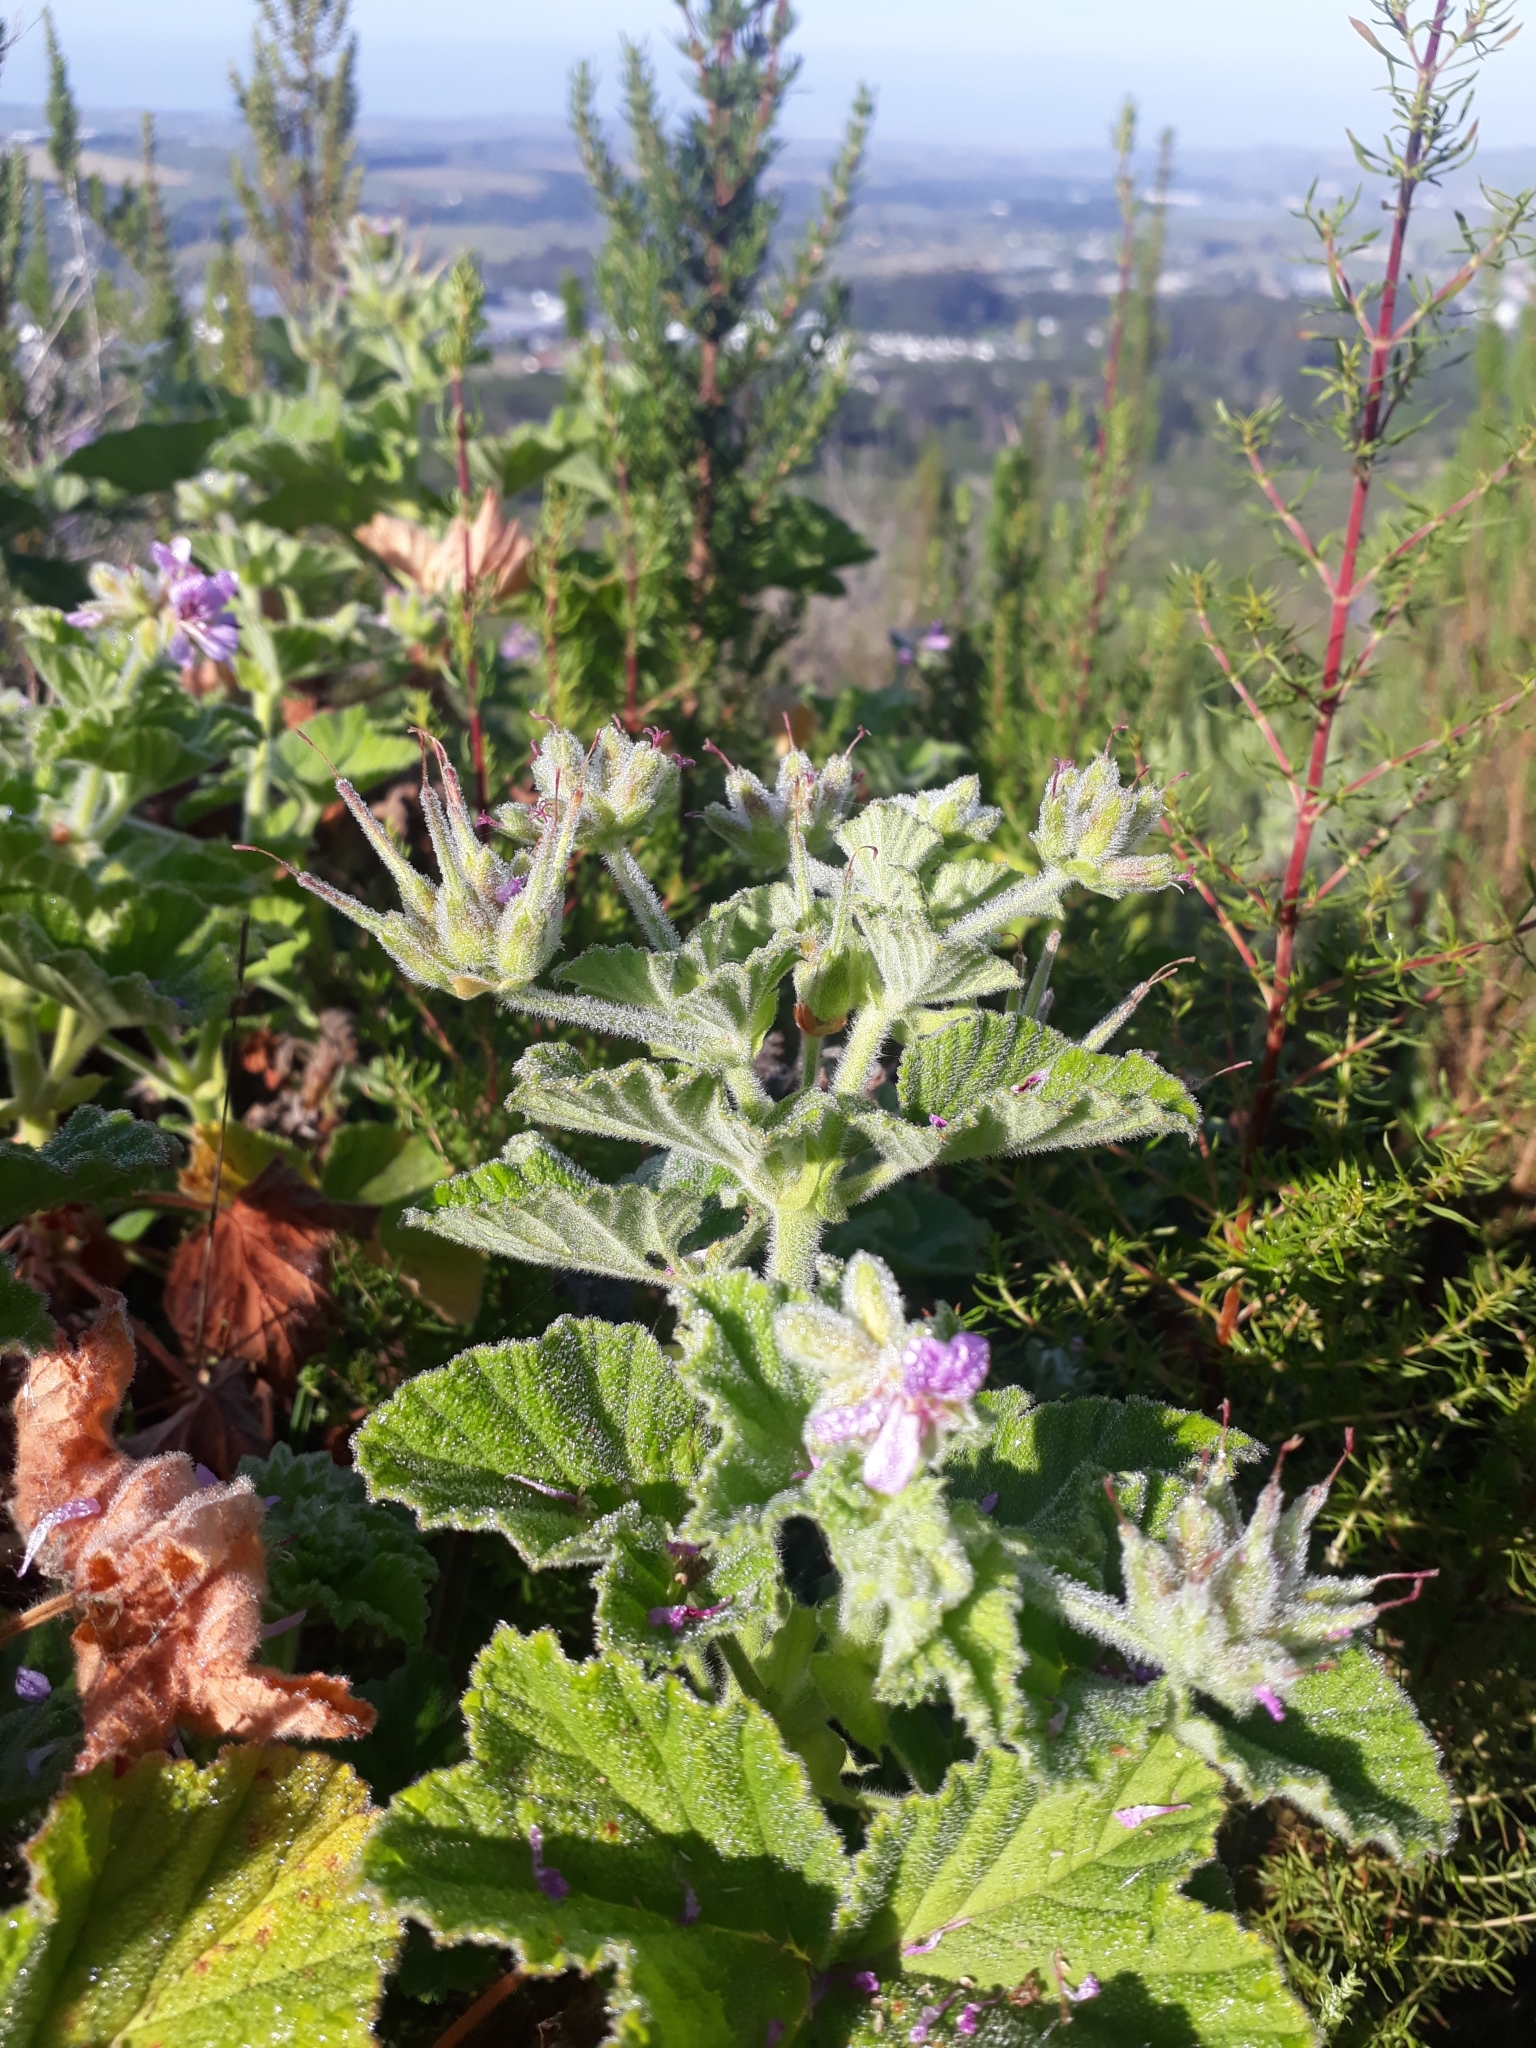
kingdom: Plantae
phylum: Tracheophyta
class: Magnoliopsida
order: Geraniales
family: Geraniaceae
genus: Pelargonium
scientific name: Pelargonium vitifolium
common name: Grapeleaf geranium
